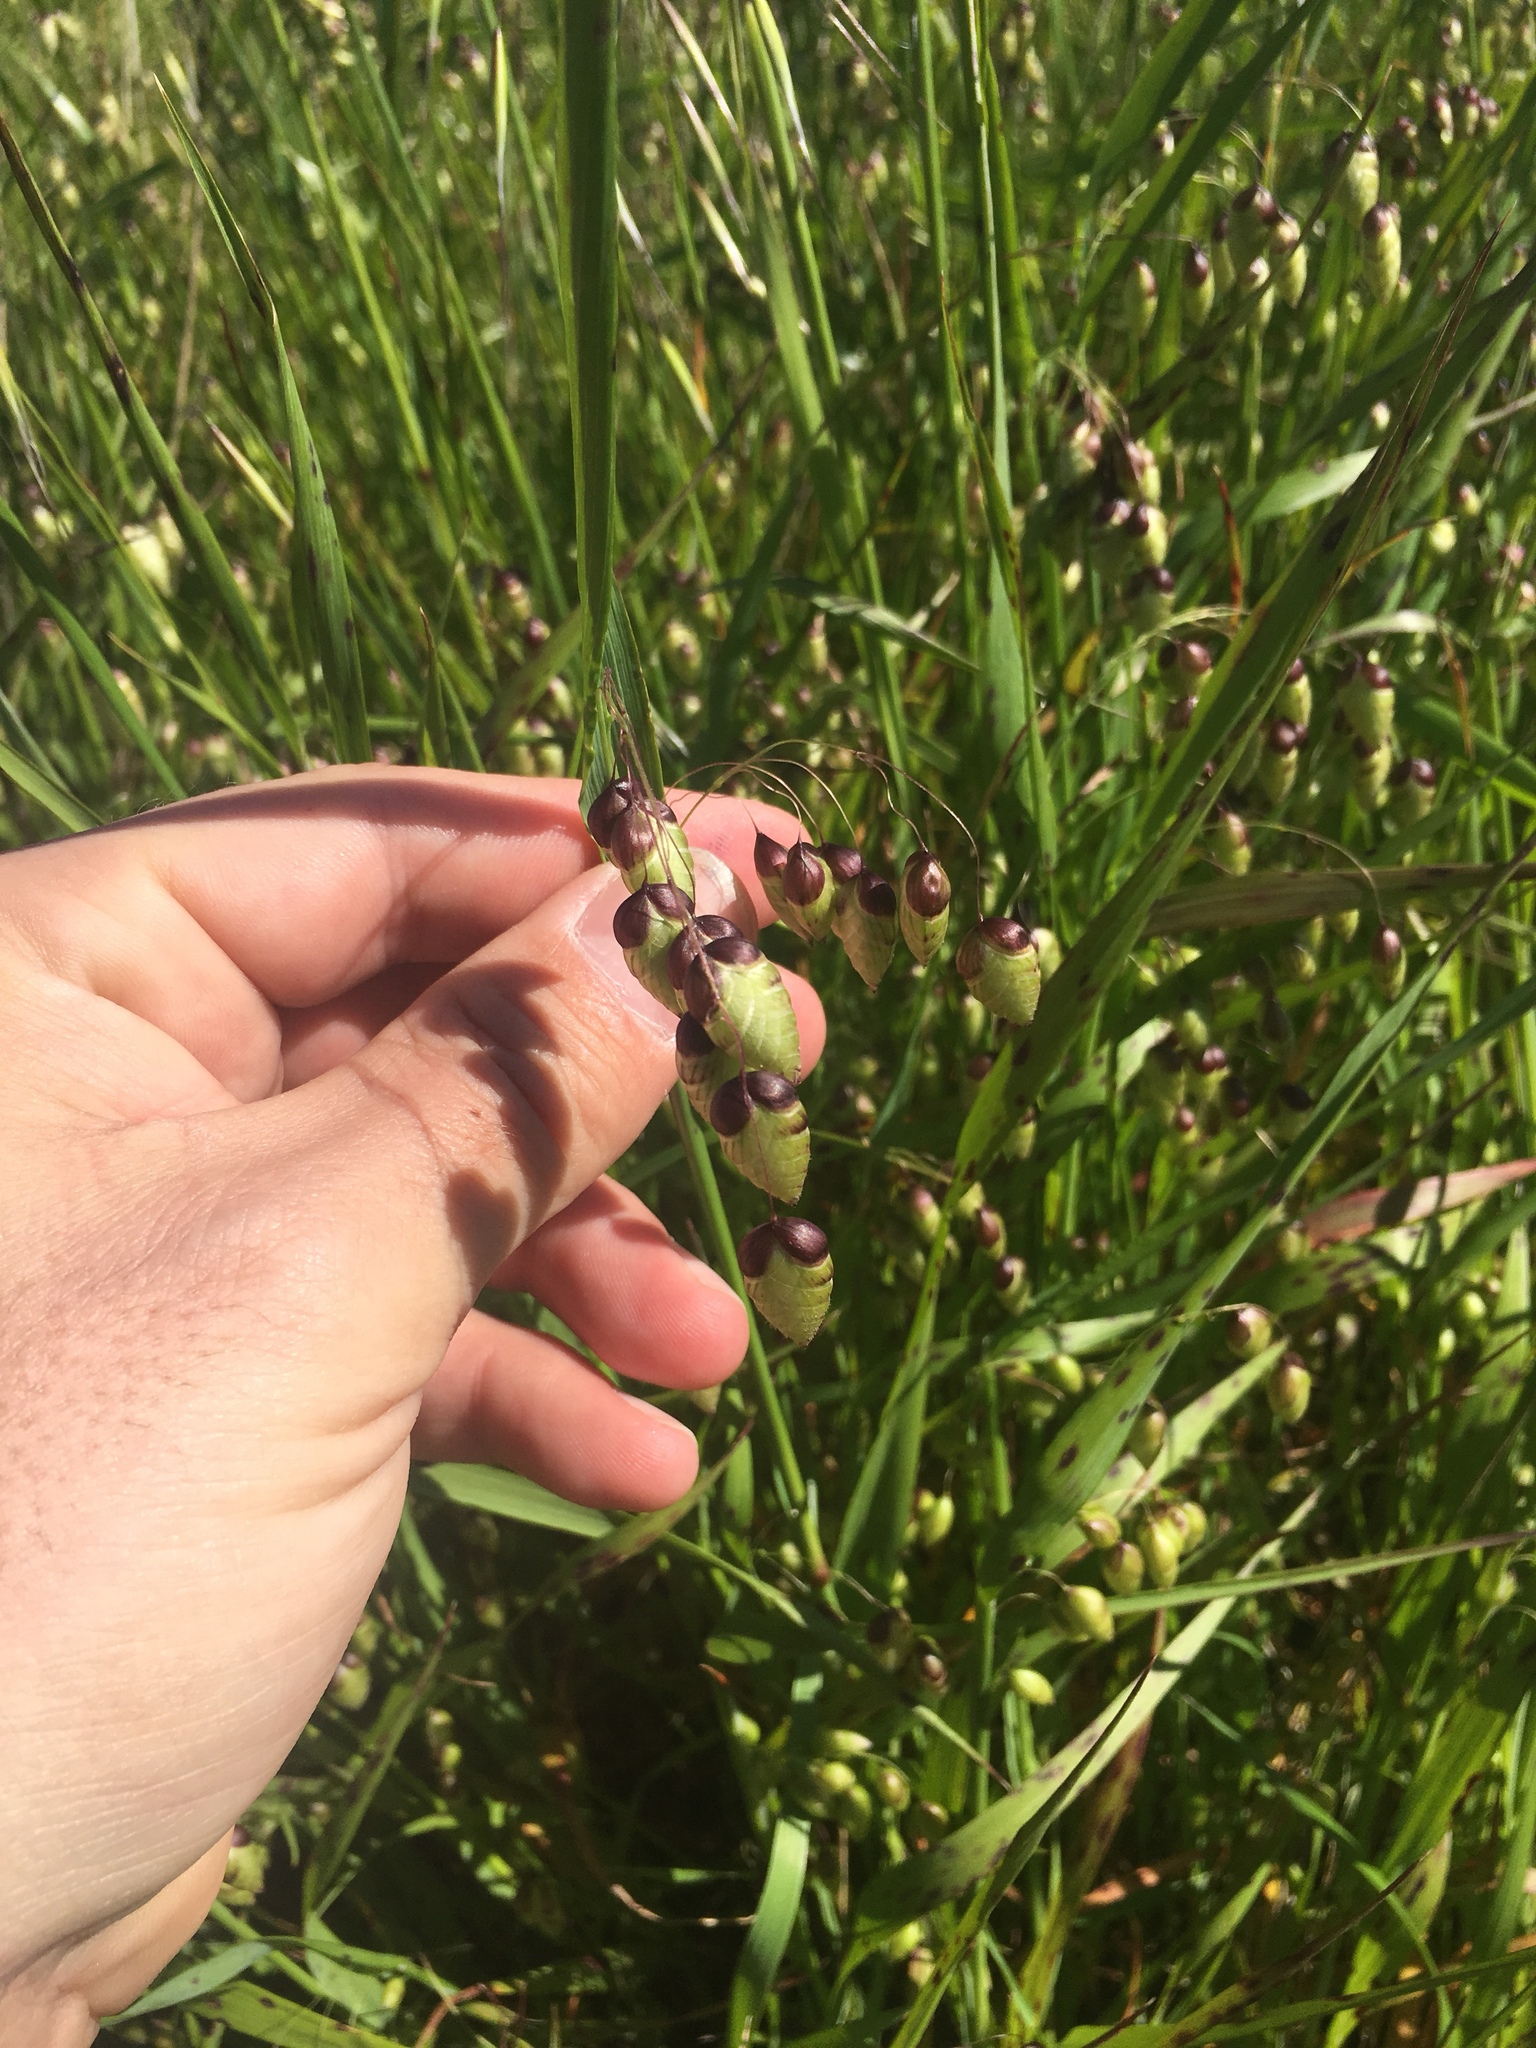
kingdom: Plantae
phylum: Tracheophyta
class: Liliopsida
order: Poales
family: Poaceae
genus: Briza
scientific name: Briza maxima
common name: Big quakinggrass
